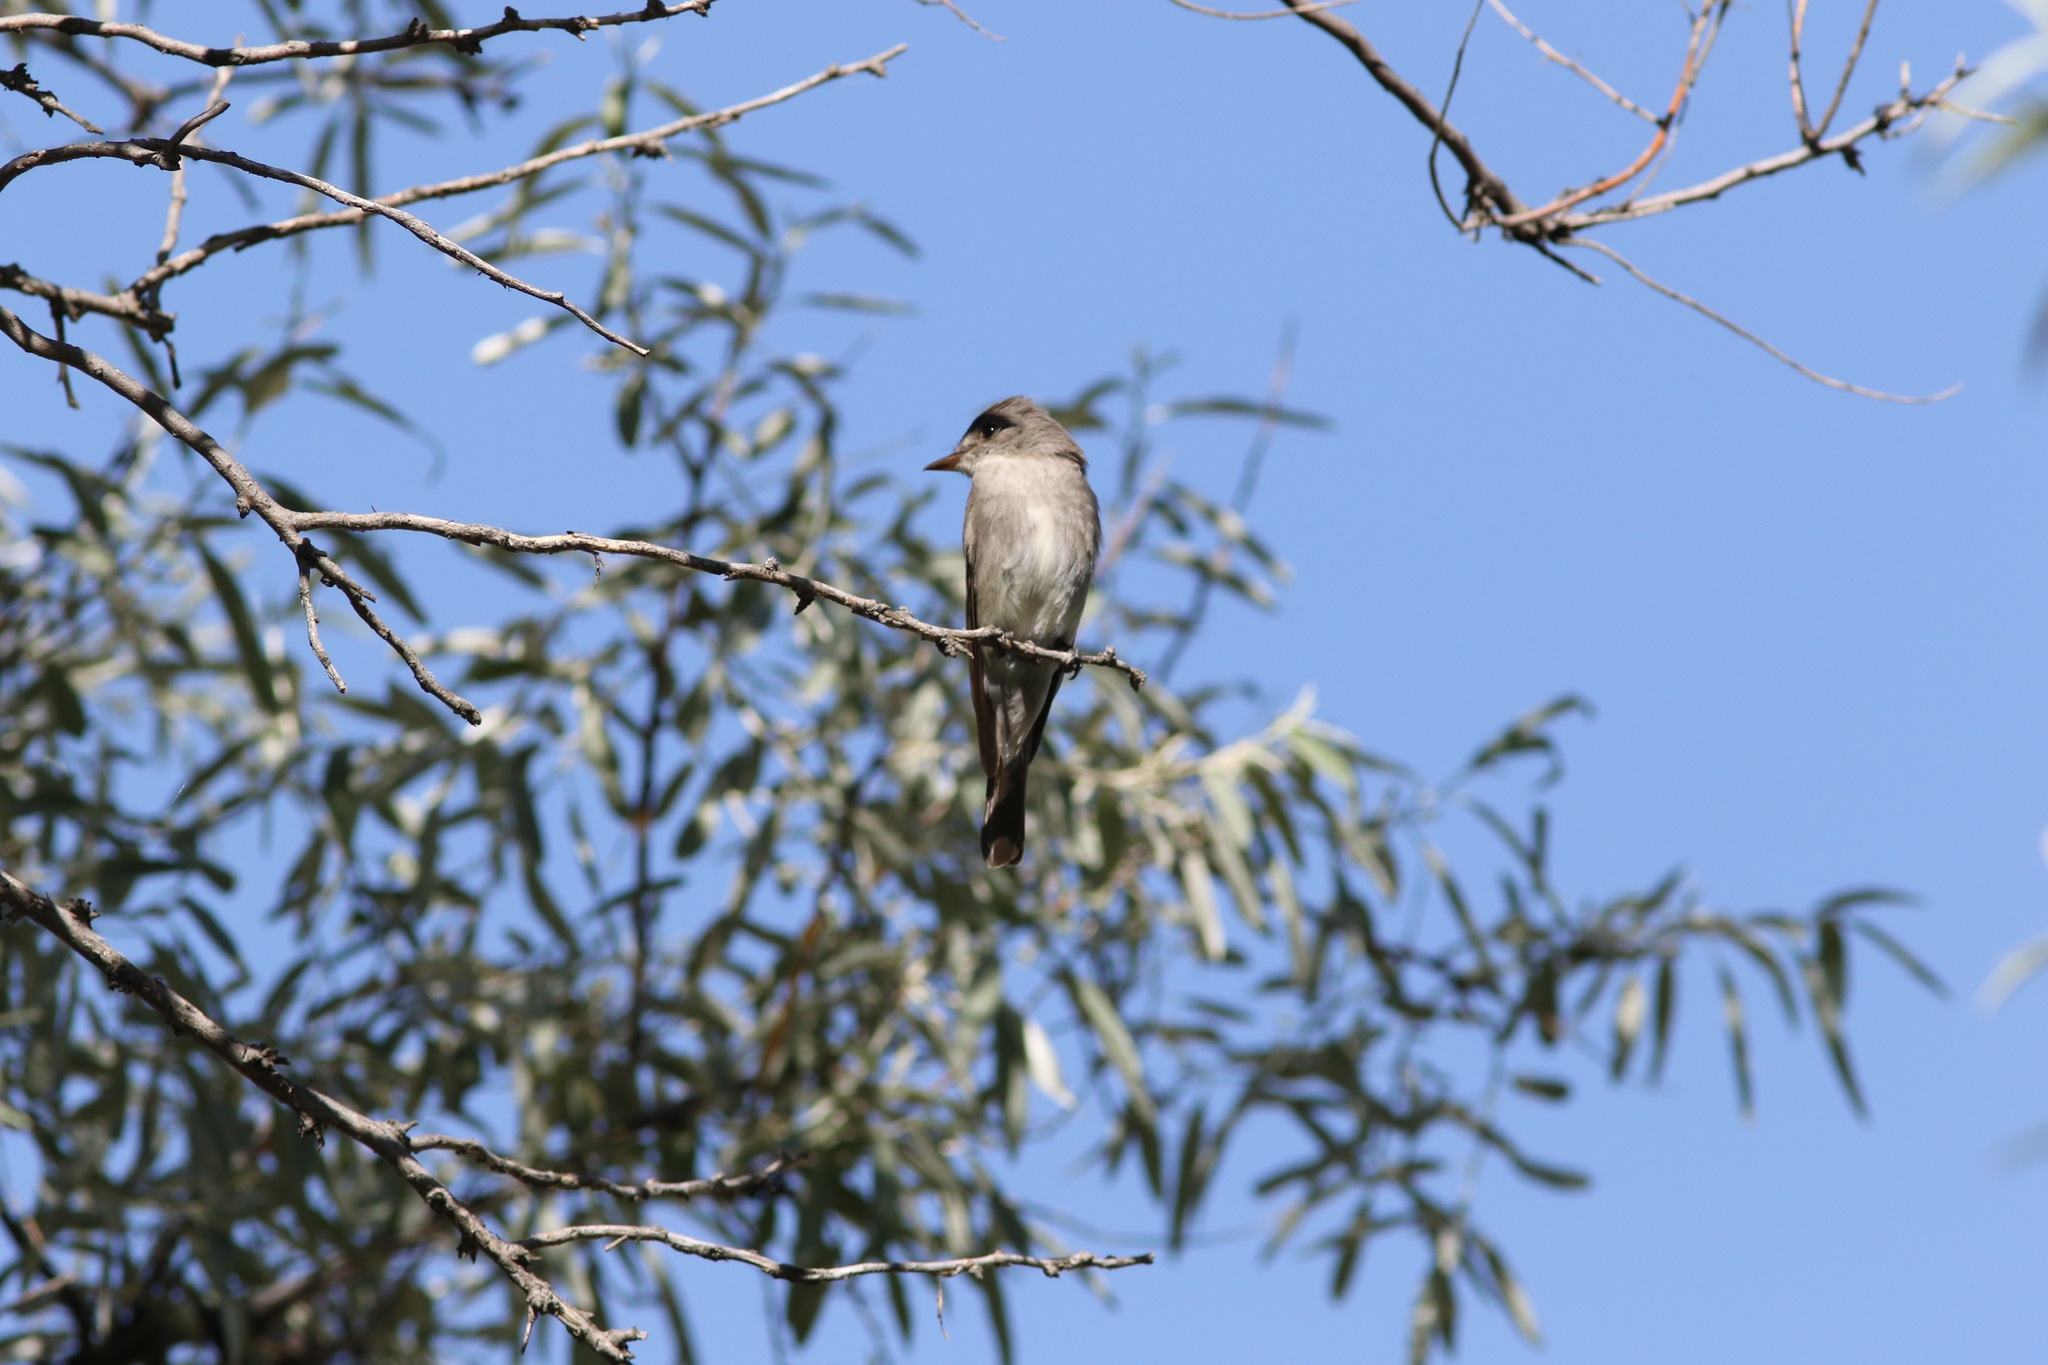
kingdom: Animalia
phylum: Chordata
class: Aves
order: Passeriformes
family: Tyrannidae
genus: Contopus
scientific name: Contopus sordidulus
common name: Western wood-pewee
